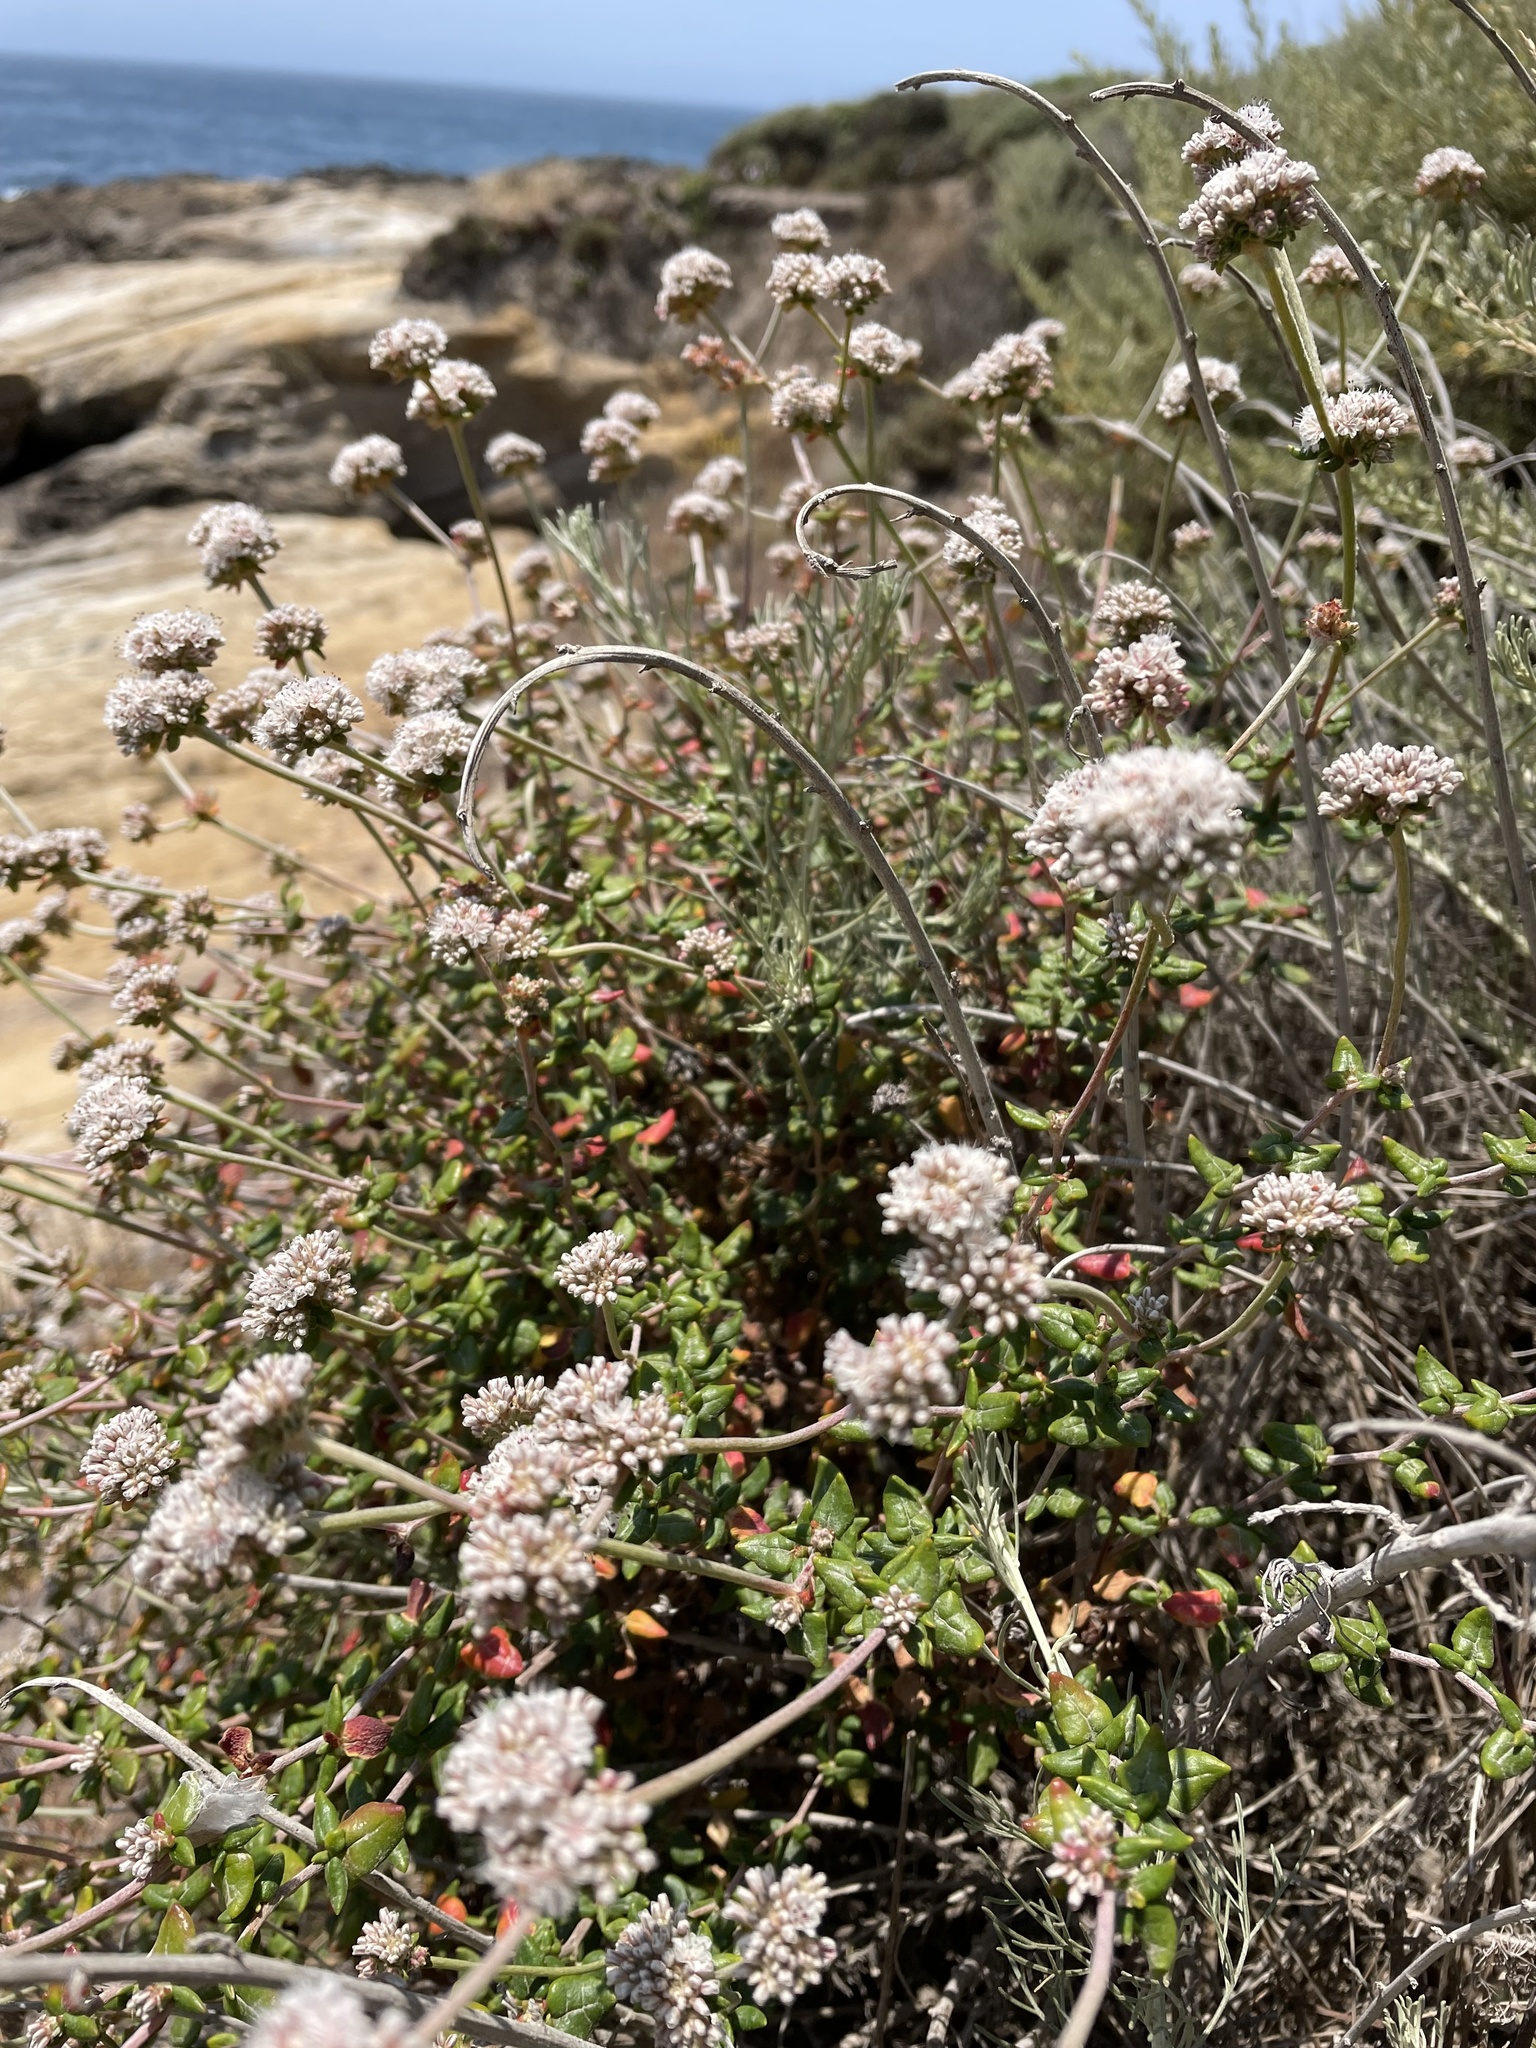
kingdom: Plantae
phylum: Tracheophyta
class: Magnoliopsida
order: Caryophyllales
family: Polygonaceae
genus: Eriogonum
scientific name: Eriogonum parvifolium
